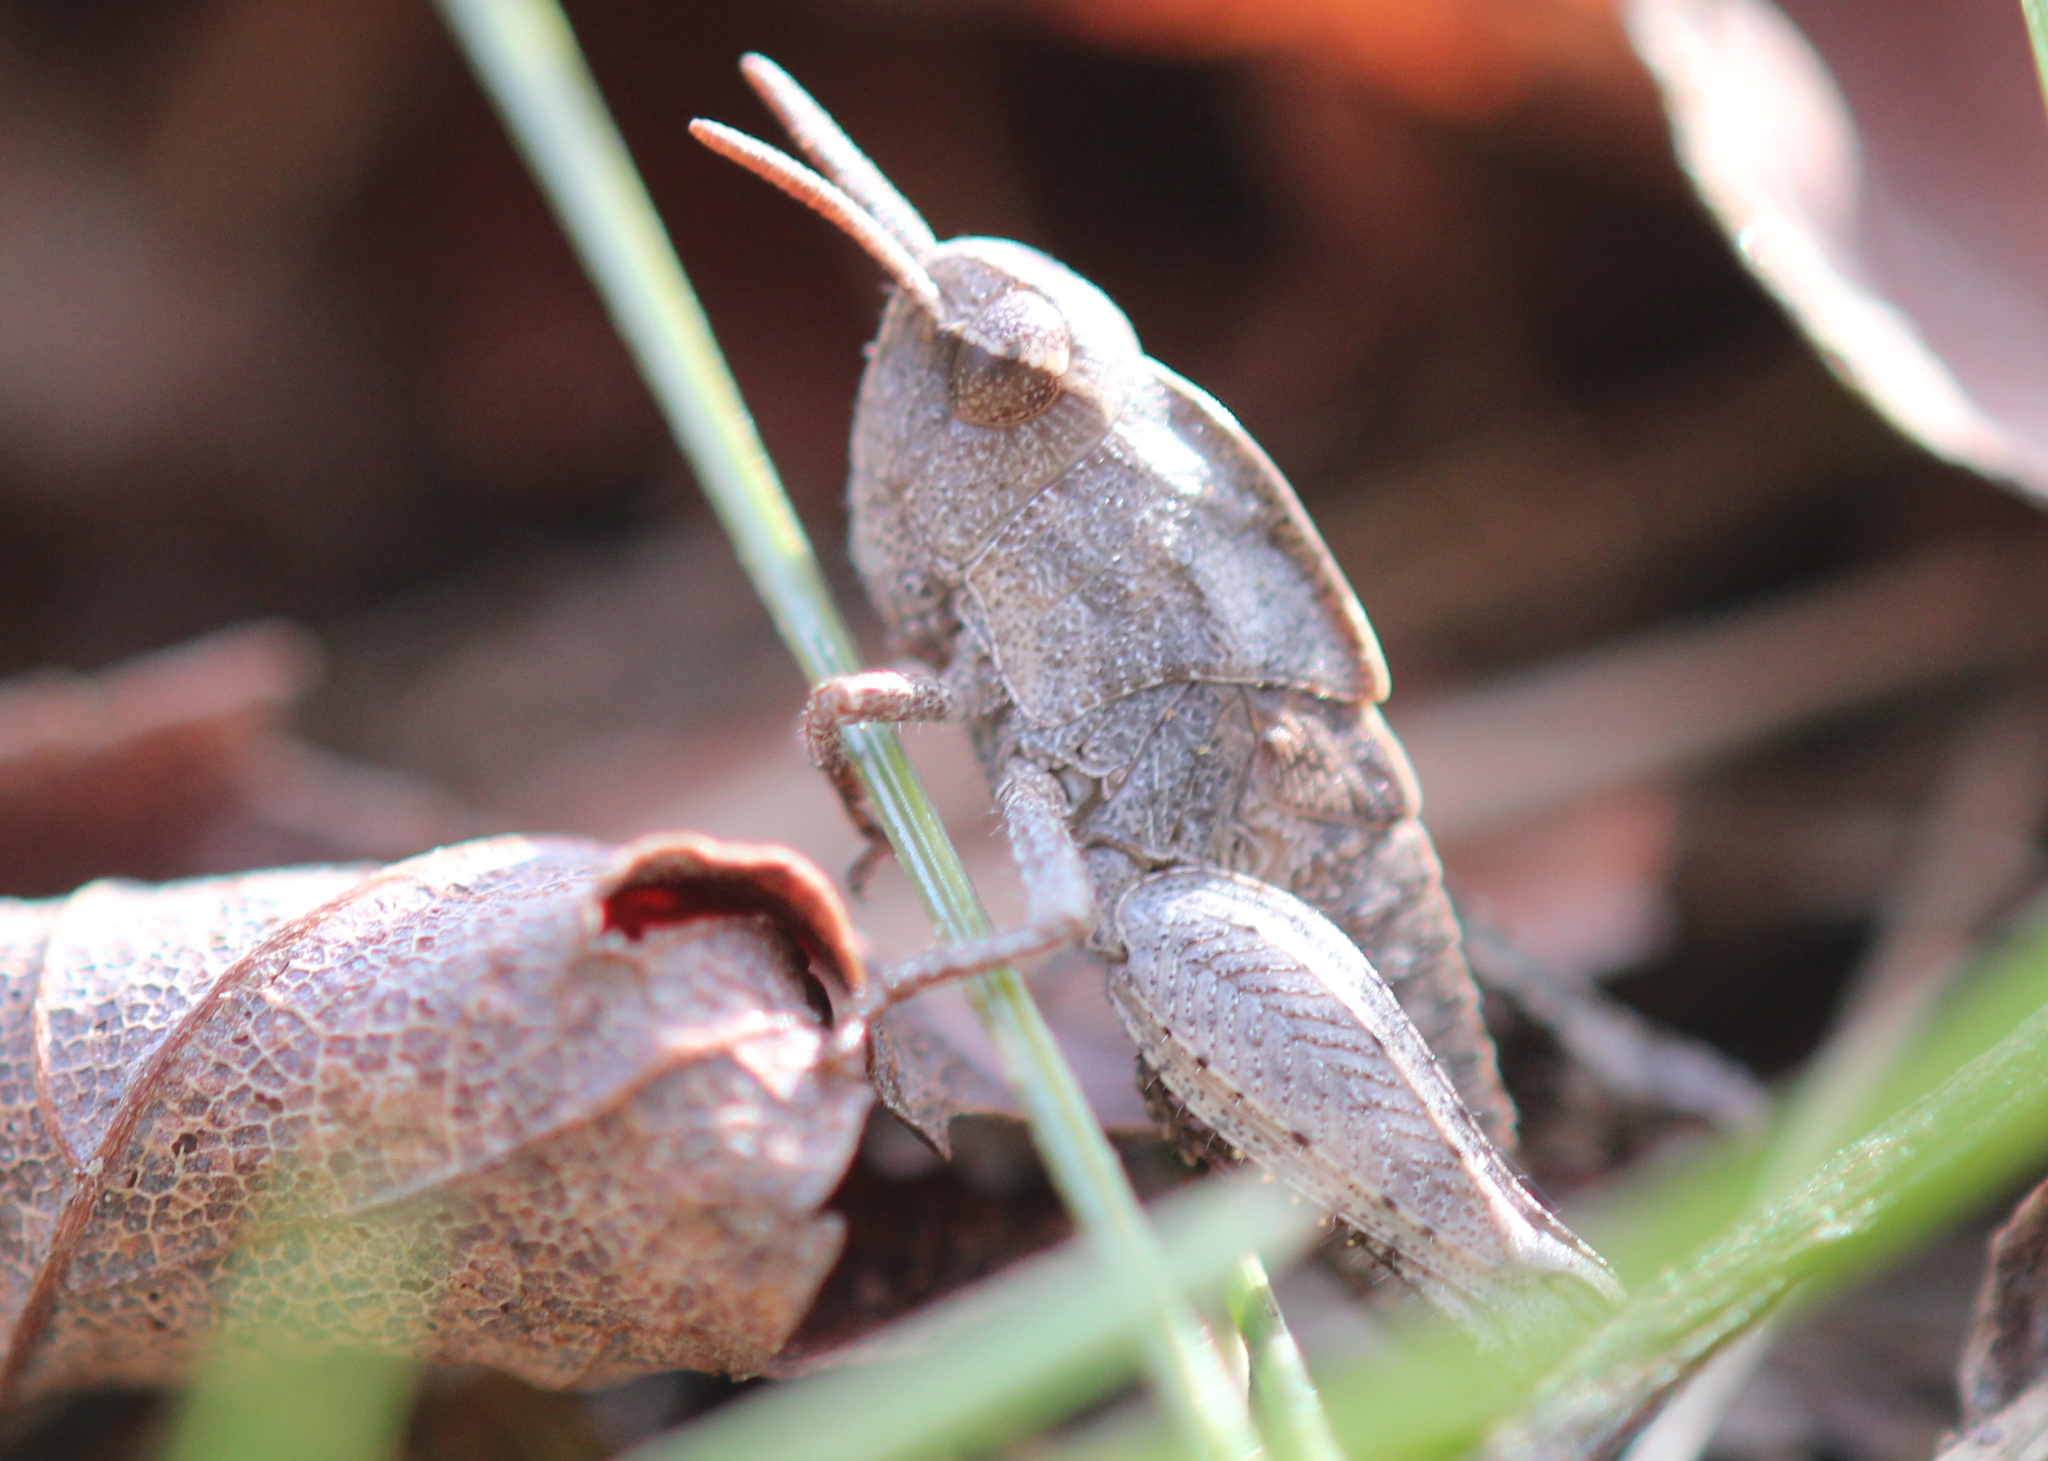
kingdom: Animalia
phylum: Arthropoda
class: Insecta
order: Orthoptera
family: Acrididae
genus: Chortophaga
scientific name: Chortophaga viridifasciata
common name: Green-striped grasshopper
